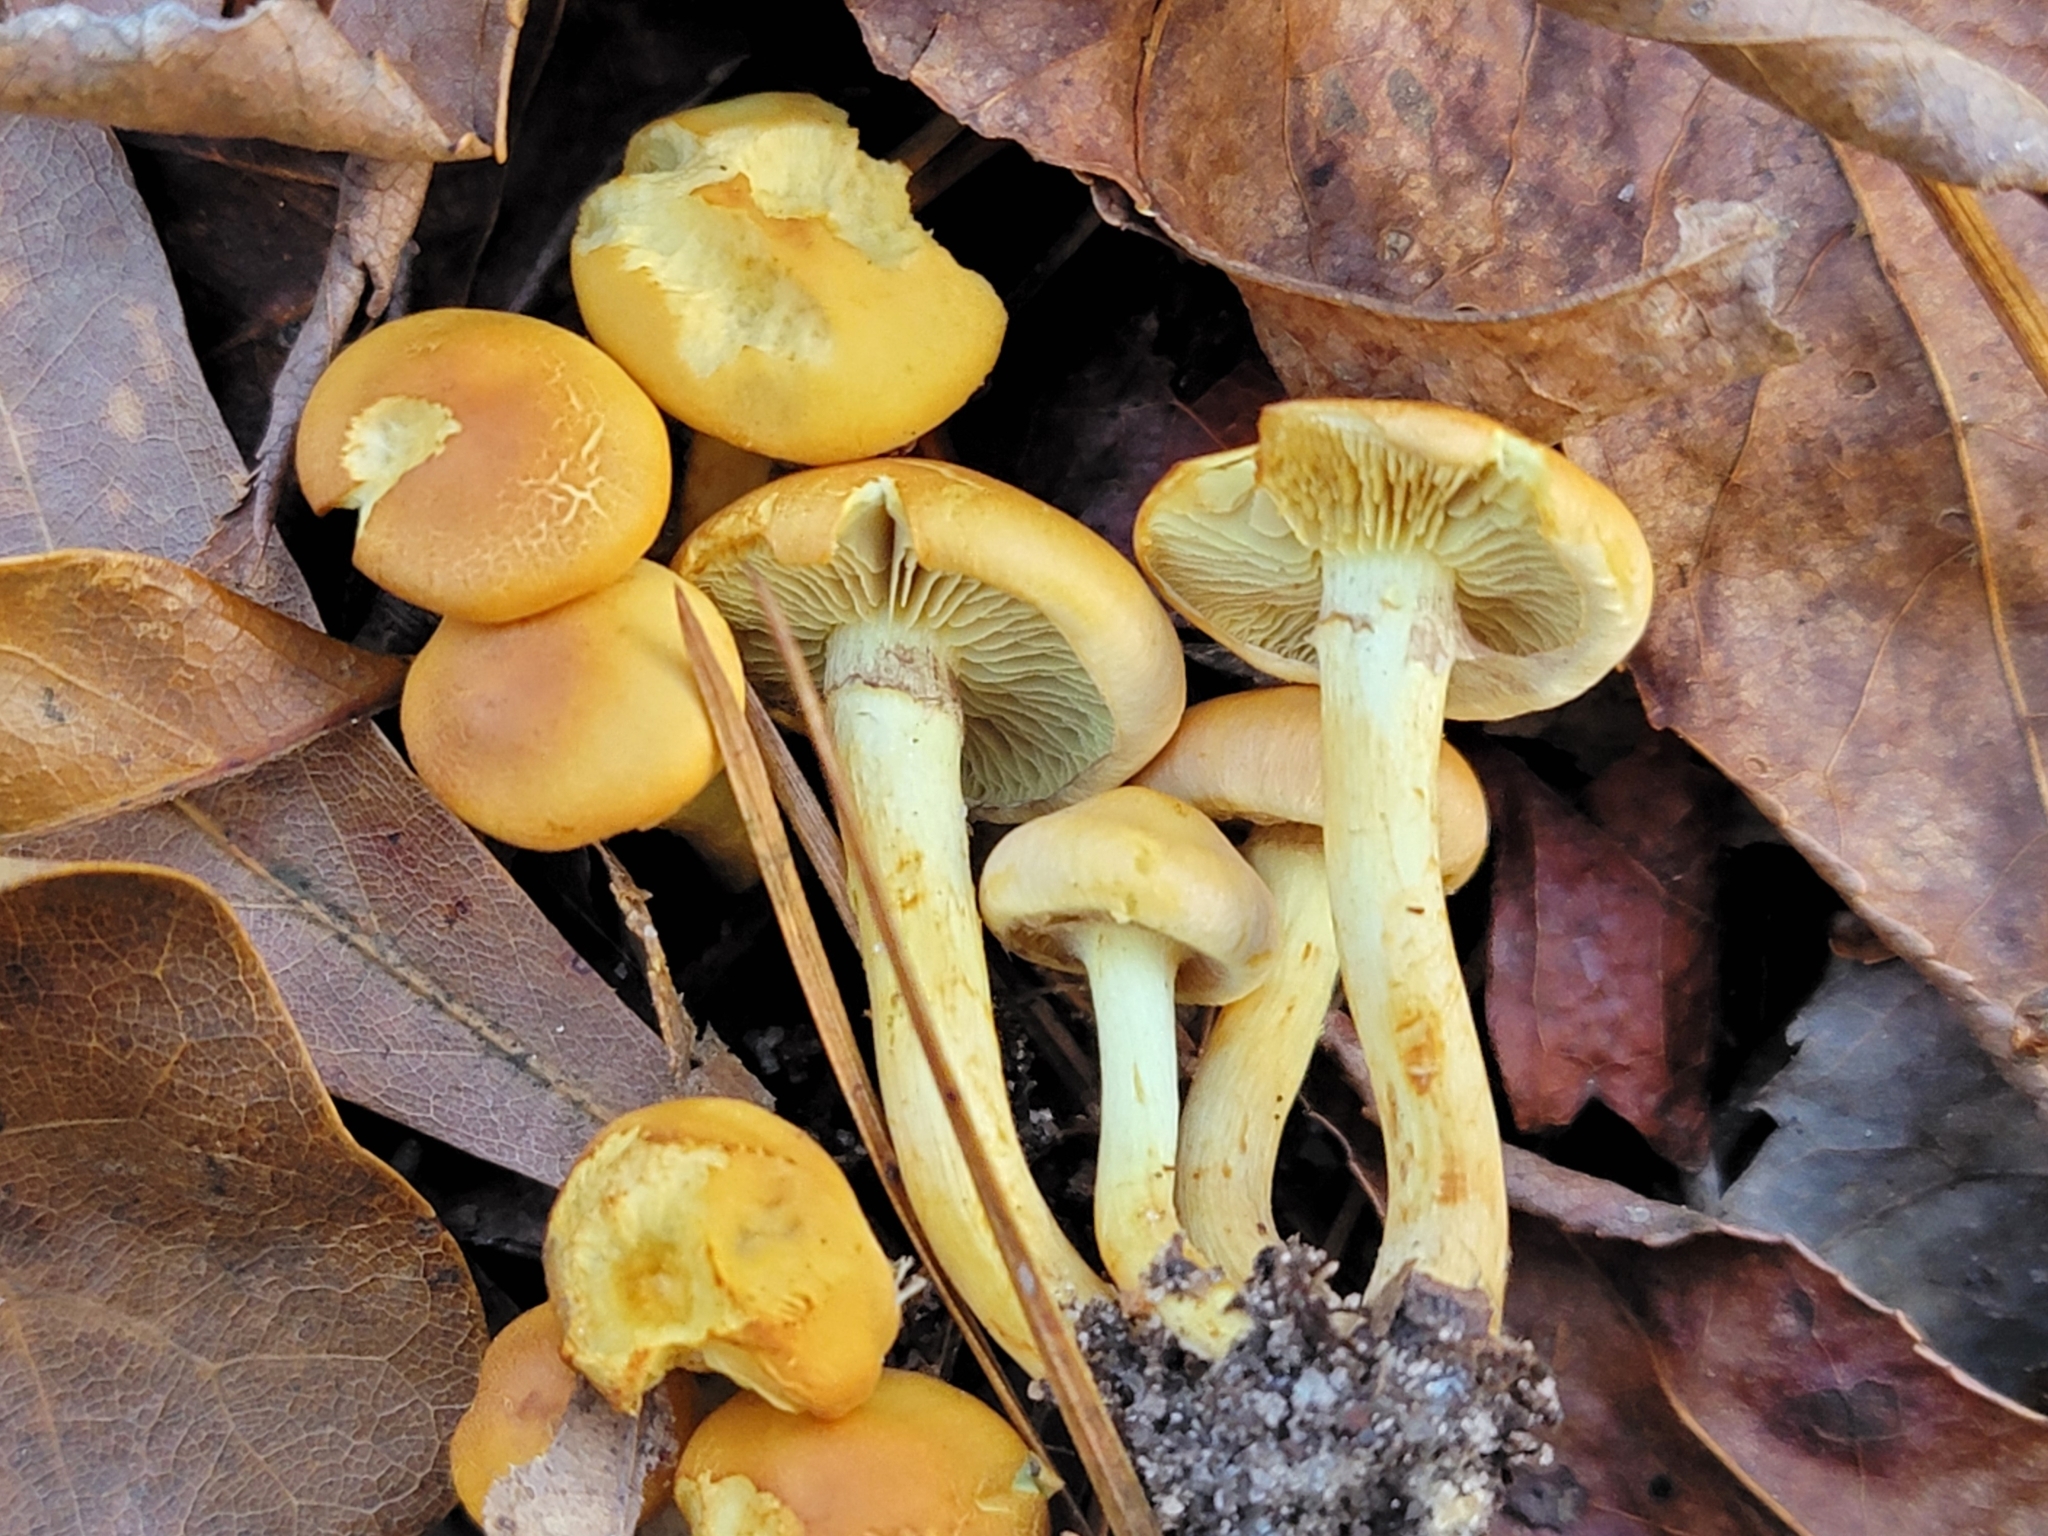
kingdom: Fungi
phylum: Basidiomycota
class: Agaricomycetes
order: Agaricales
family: Strophariaceae
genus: Hypholoma
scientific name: Hypholoma fasciculare
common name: Sulphur tuft
